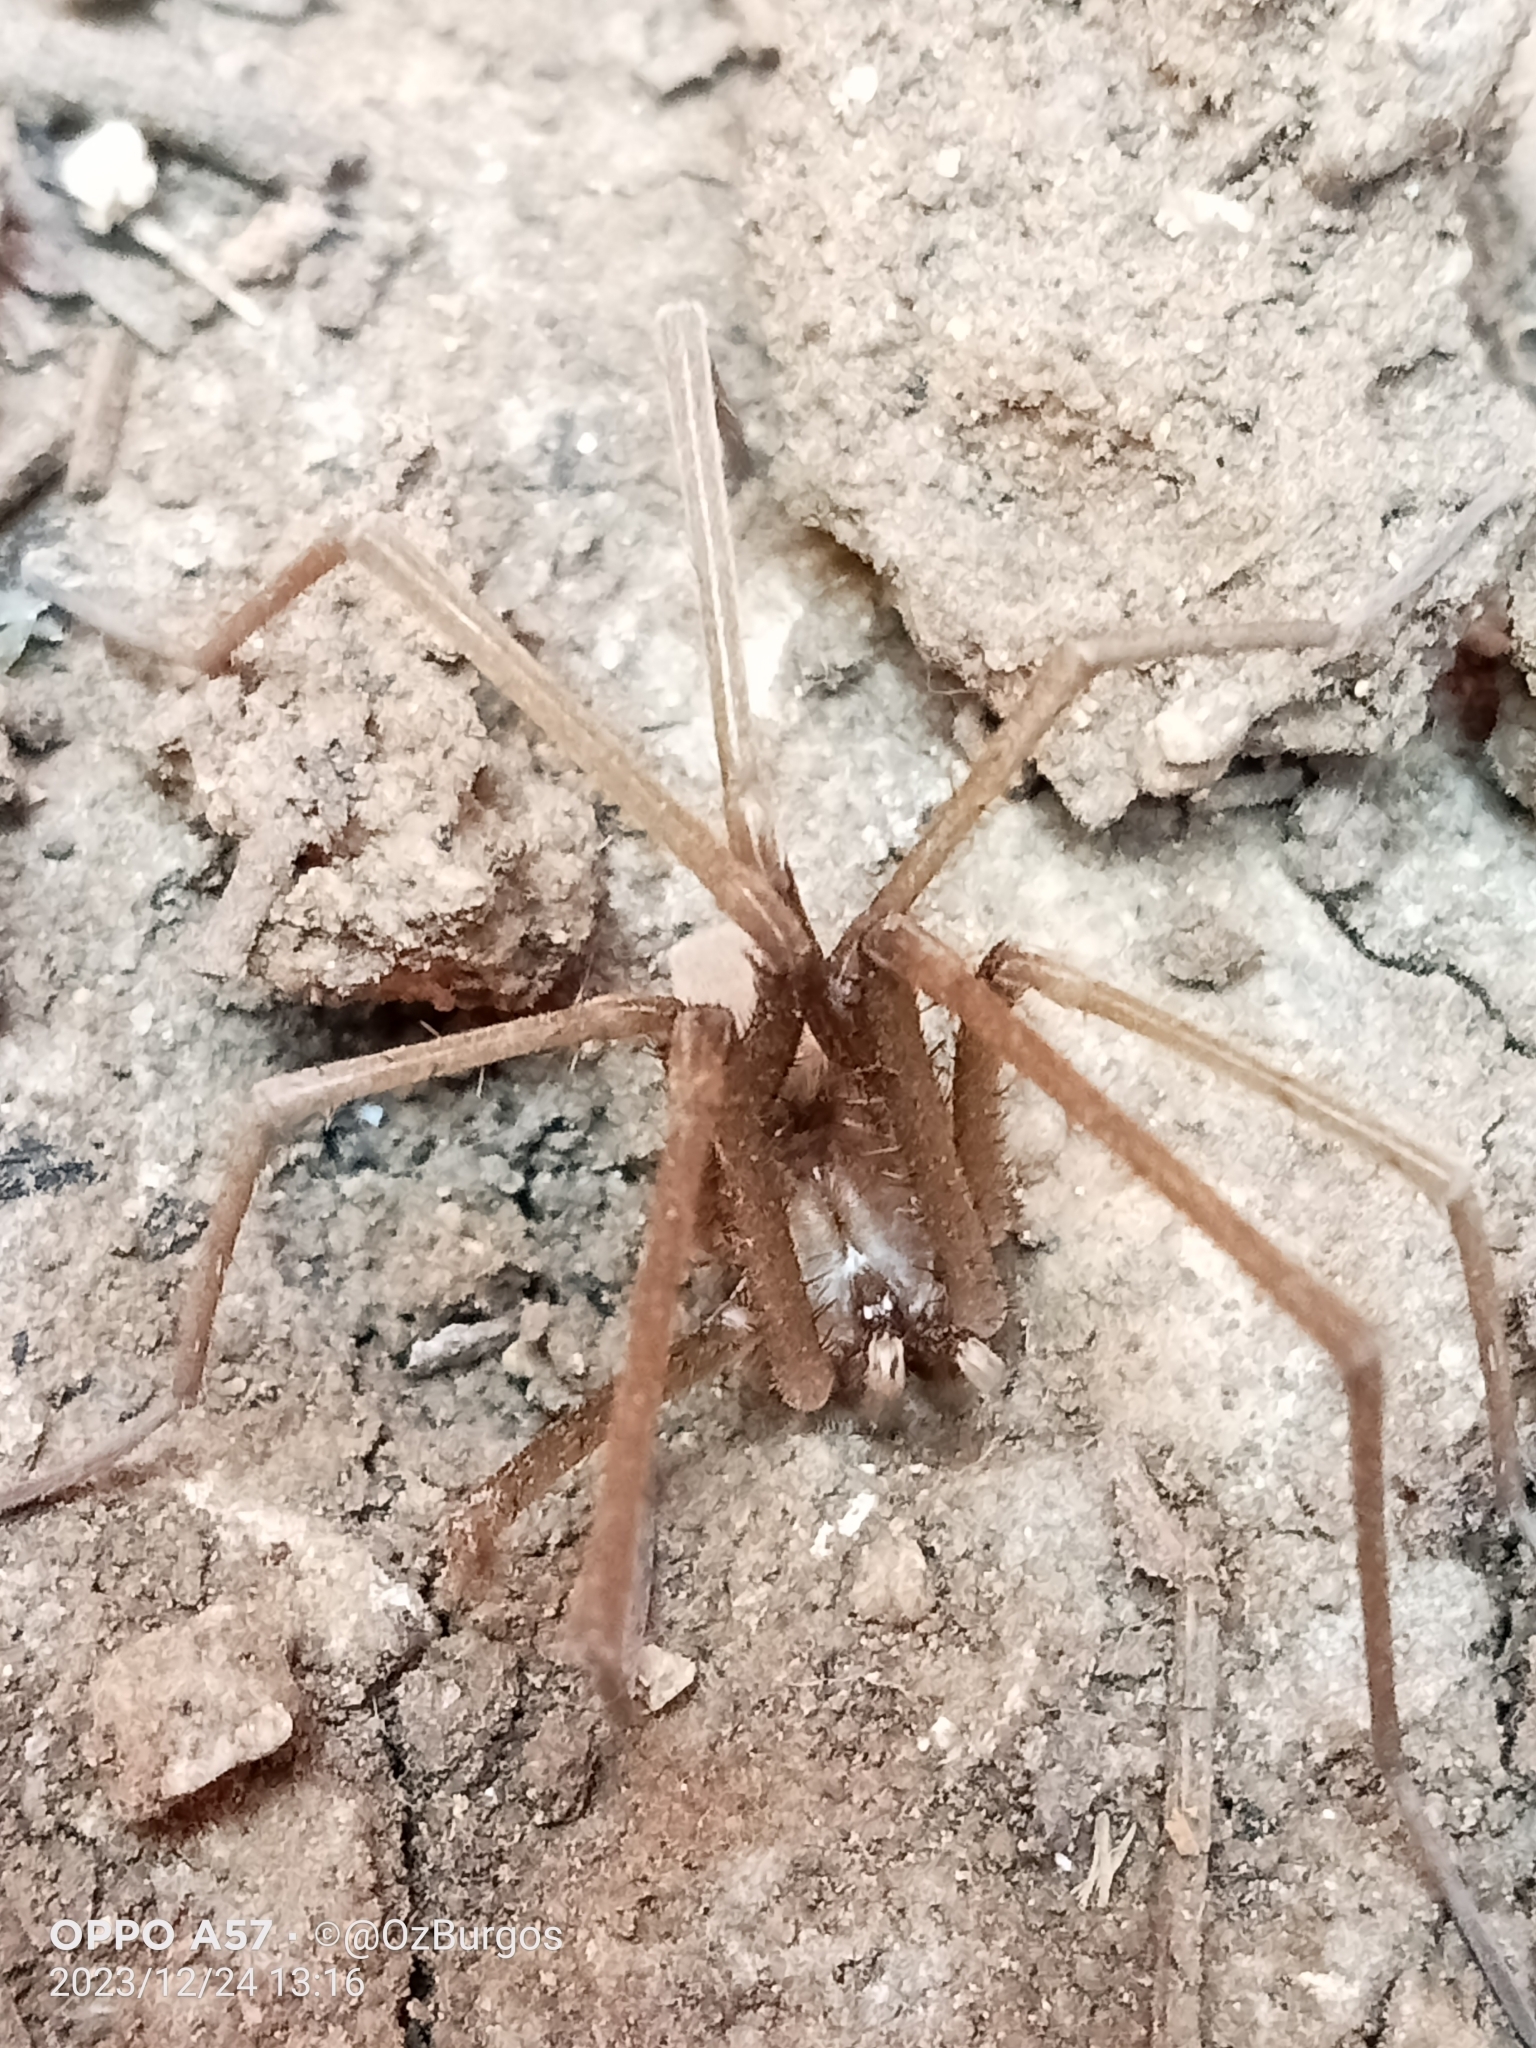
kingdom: Animalia
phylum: Arthropoda
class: Arachnida
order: Araneae
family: Filistatidae
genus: Kukulcania
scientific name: Kukulcania
